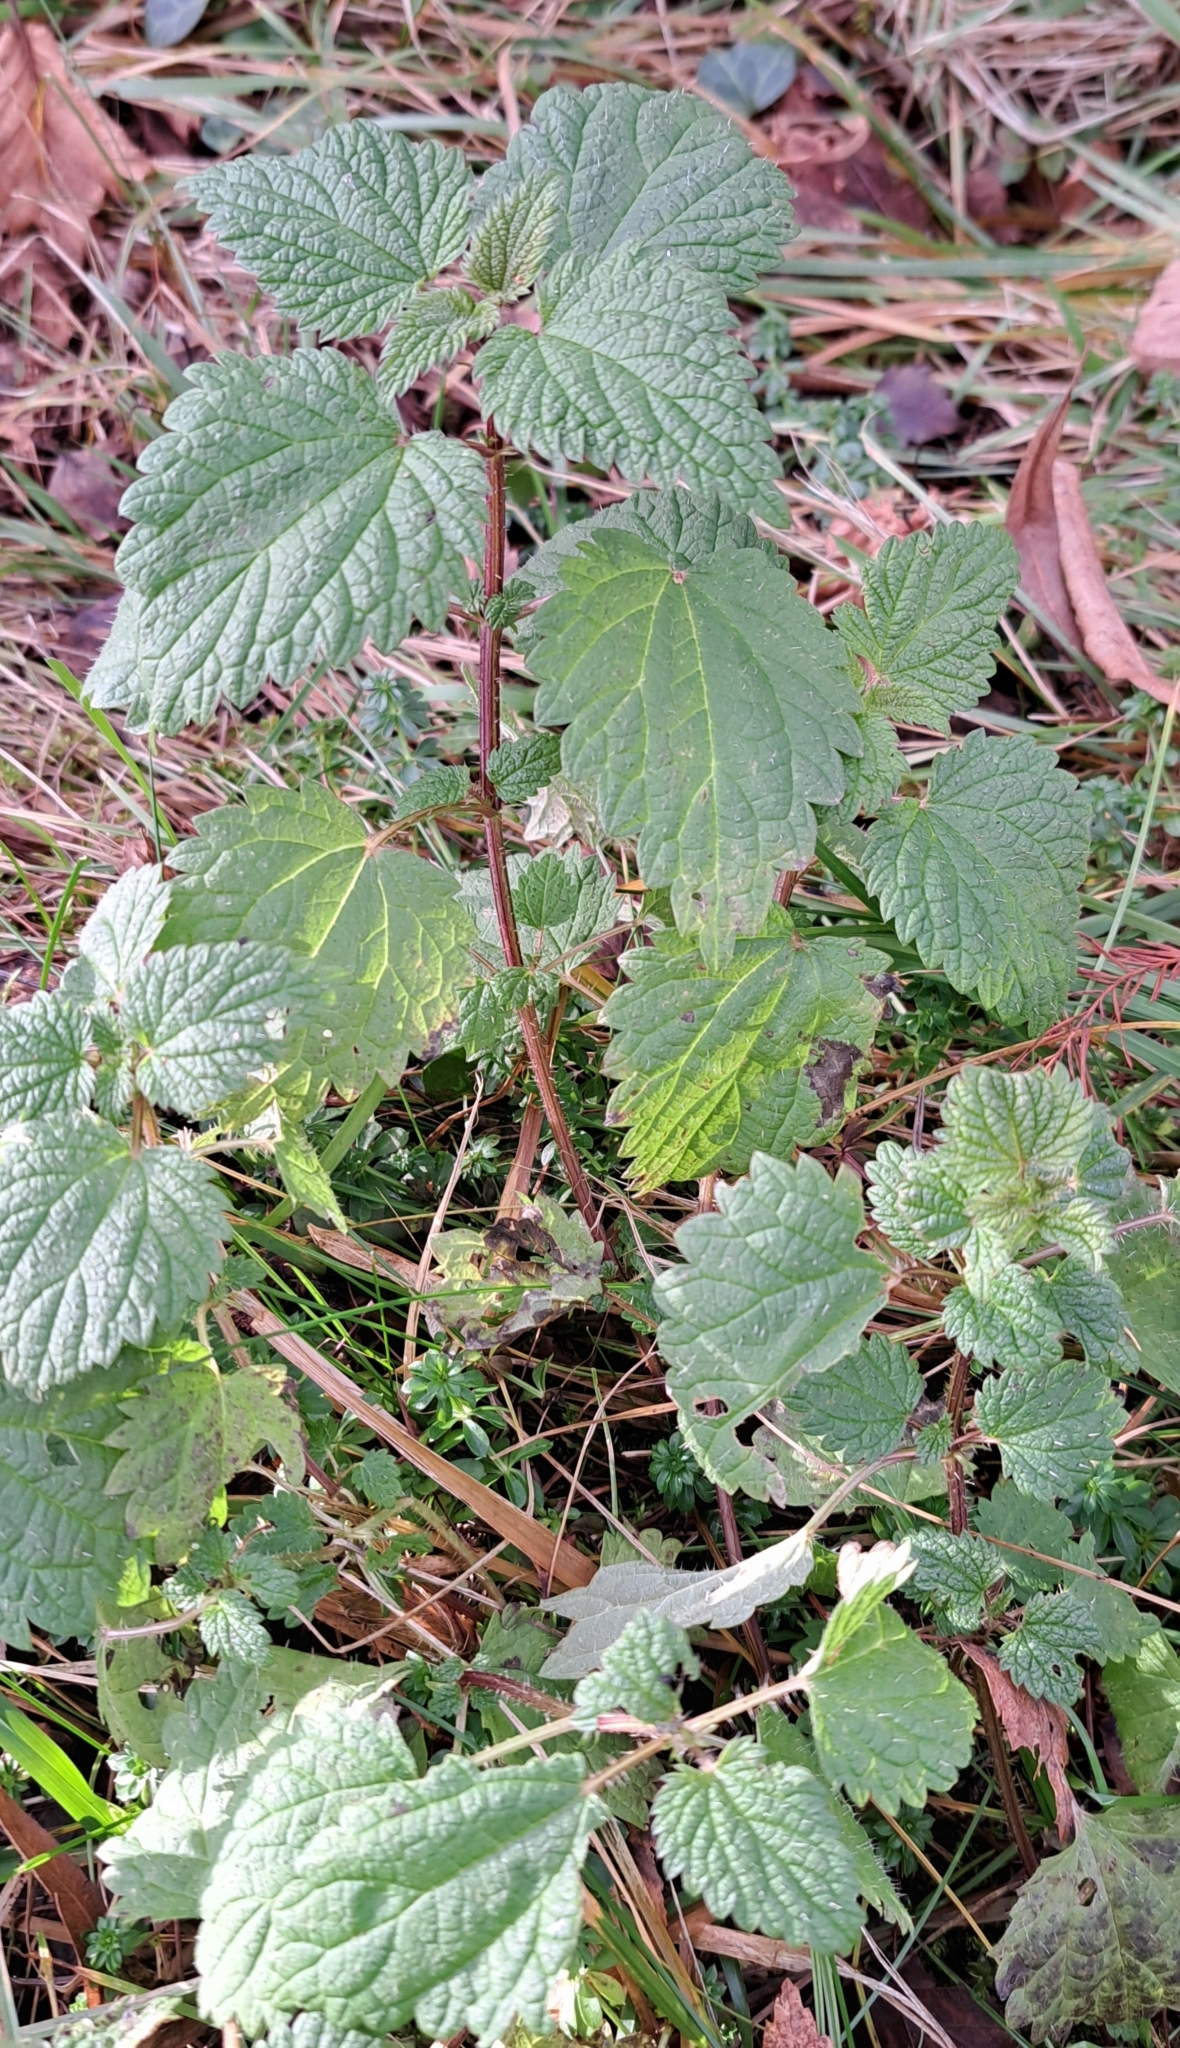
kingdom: Plantae
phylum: Tracheophyta
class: Magnoliopsida
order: Rosales
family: Urticaceae
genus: Urtica
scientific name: Urtica dioica
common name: Common nettle
